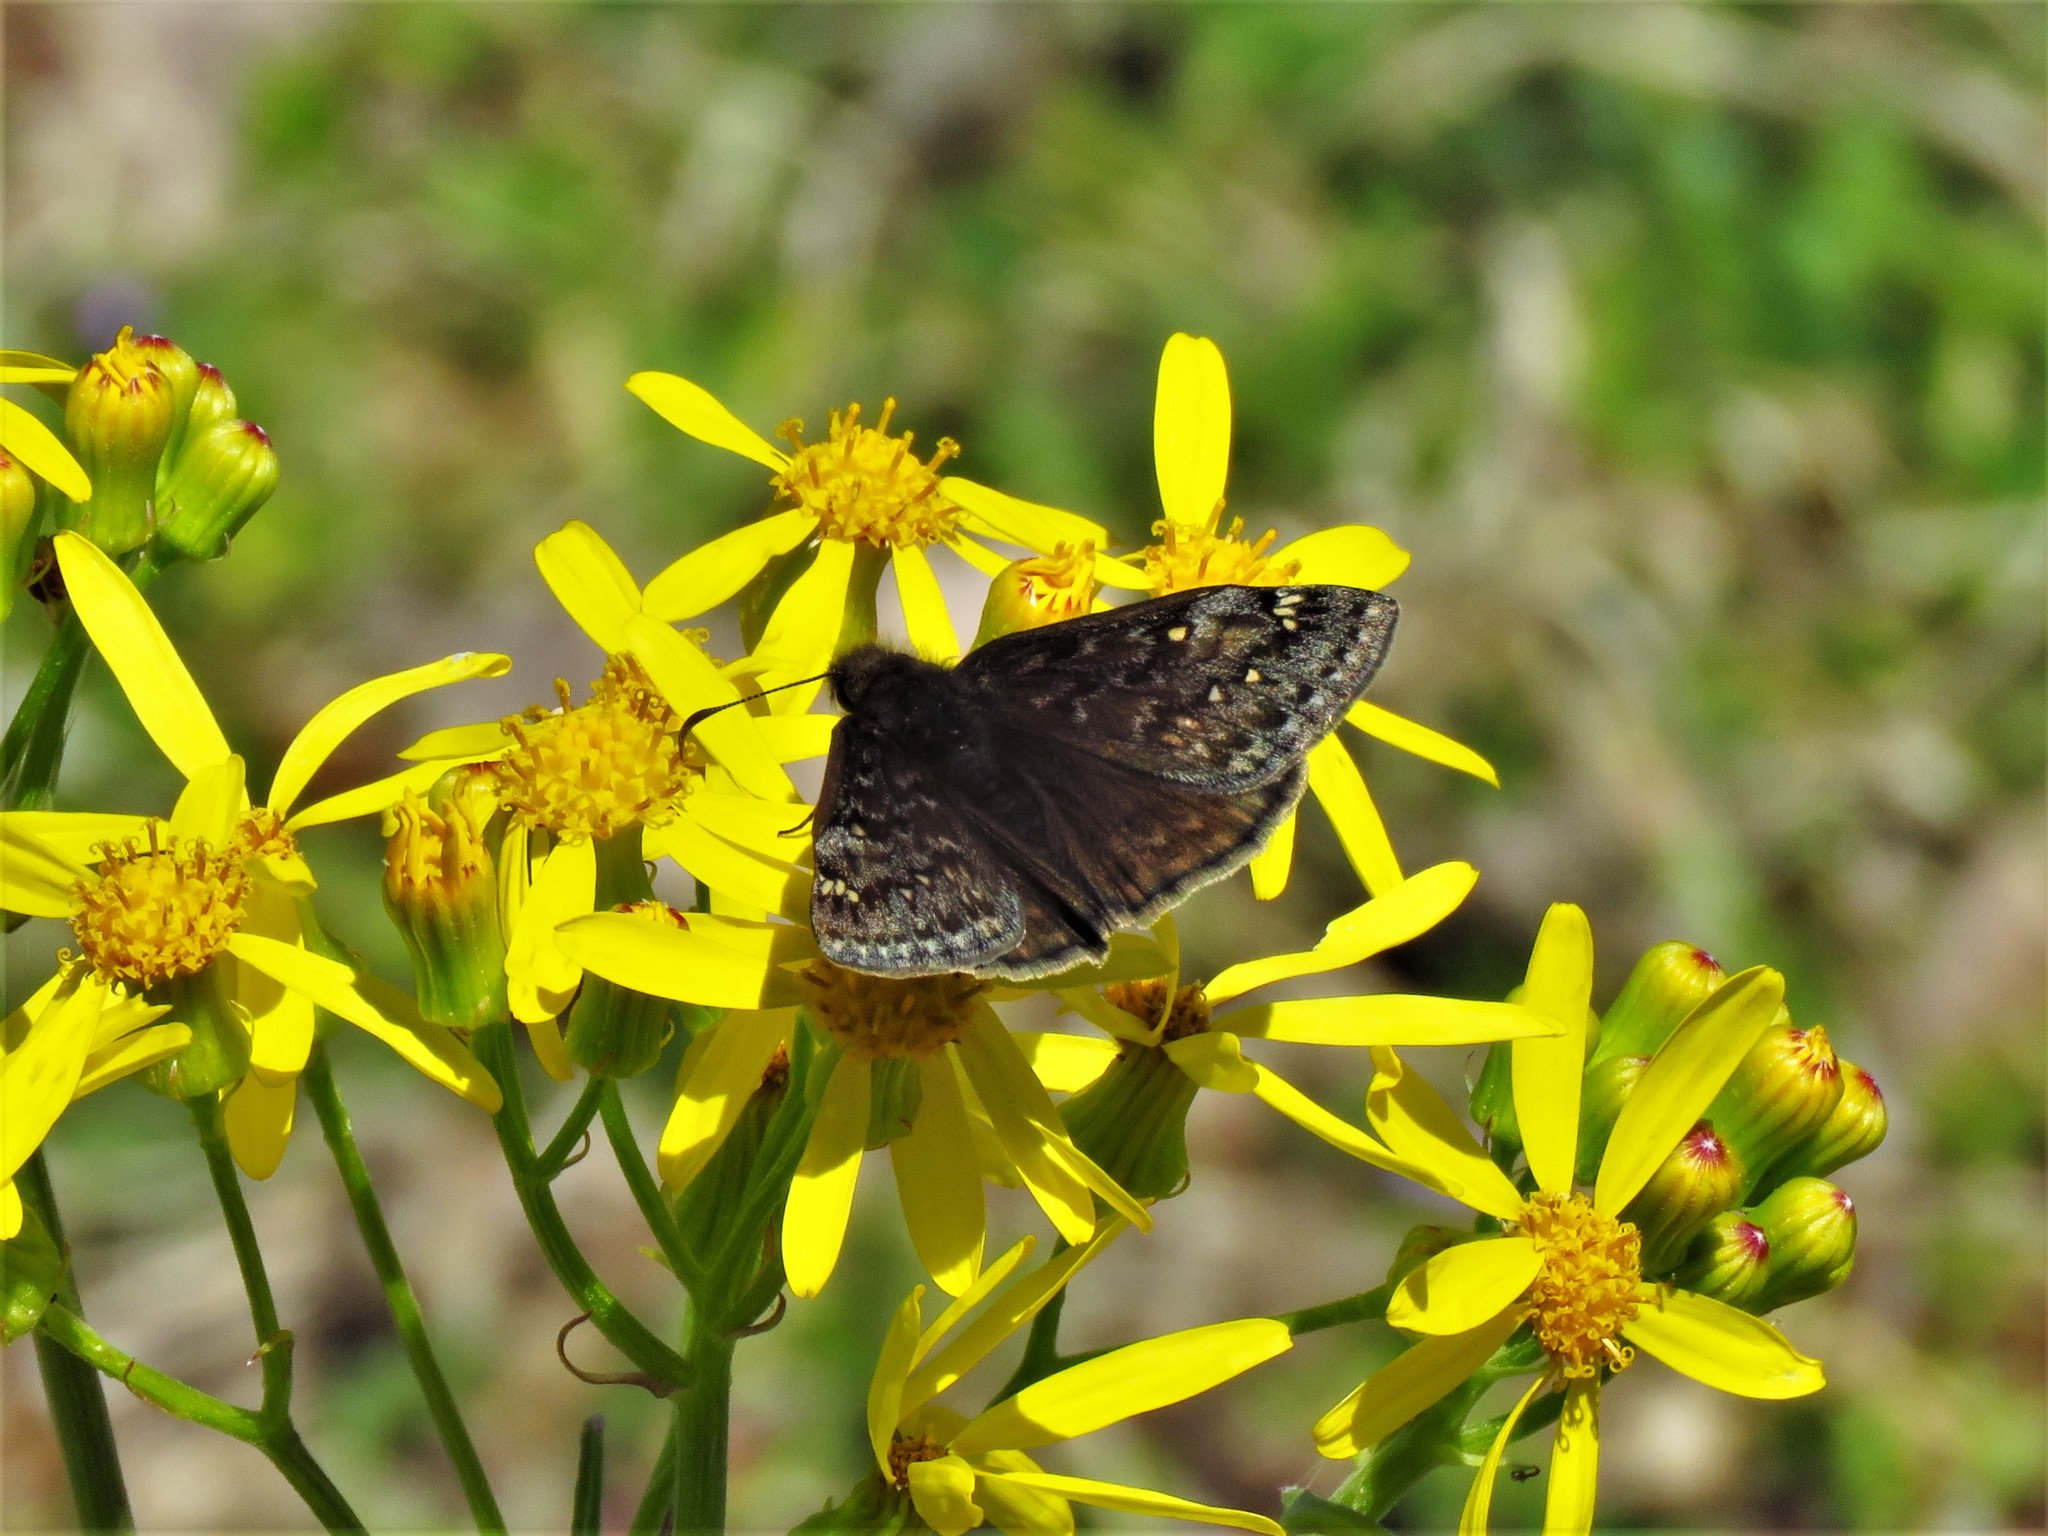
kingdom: Animalia
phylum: Arthropoda
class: Insecta
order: Lepidoptera
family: Hesperiidae
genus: Erynnis
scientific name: Erynnis juvenalis
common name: Juvenal's duskywing
